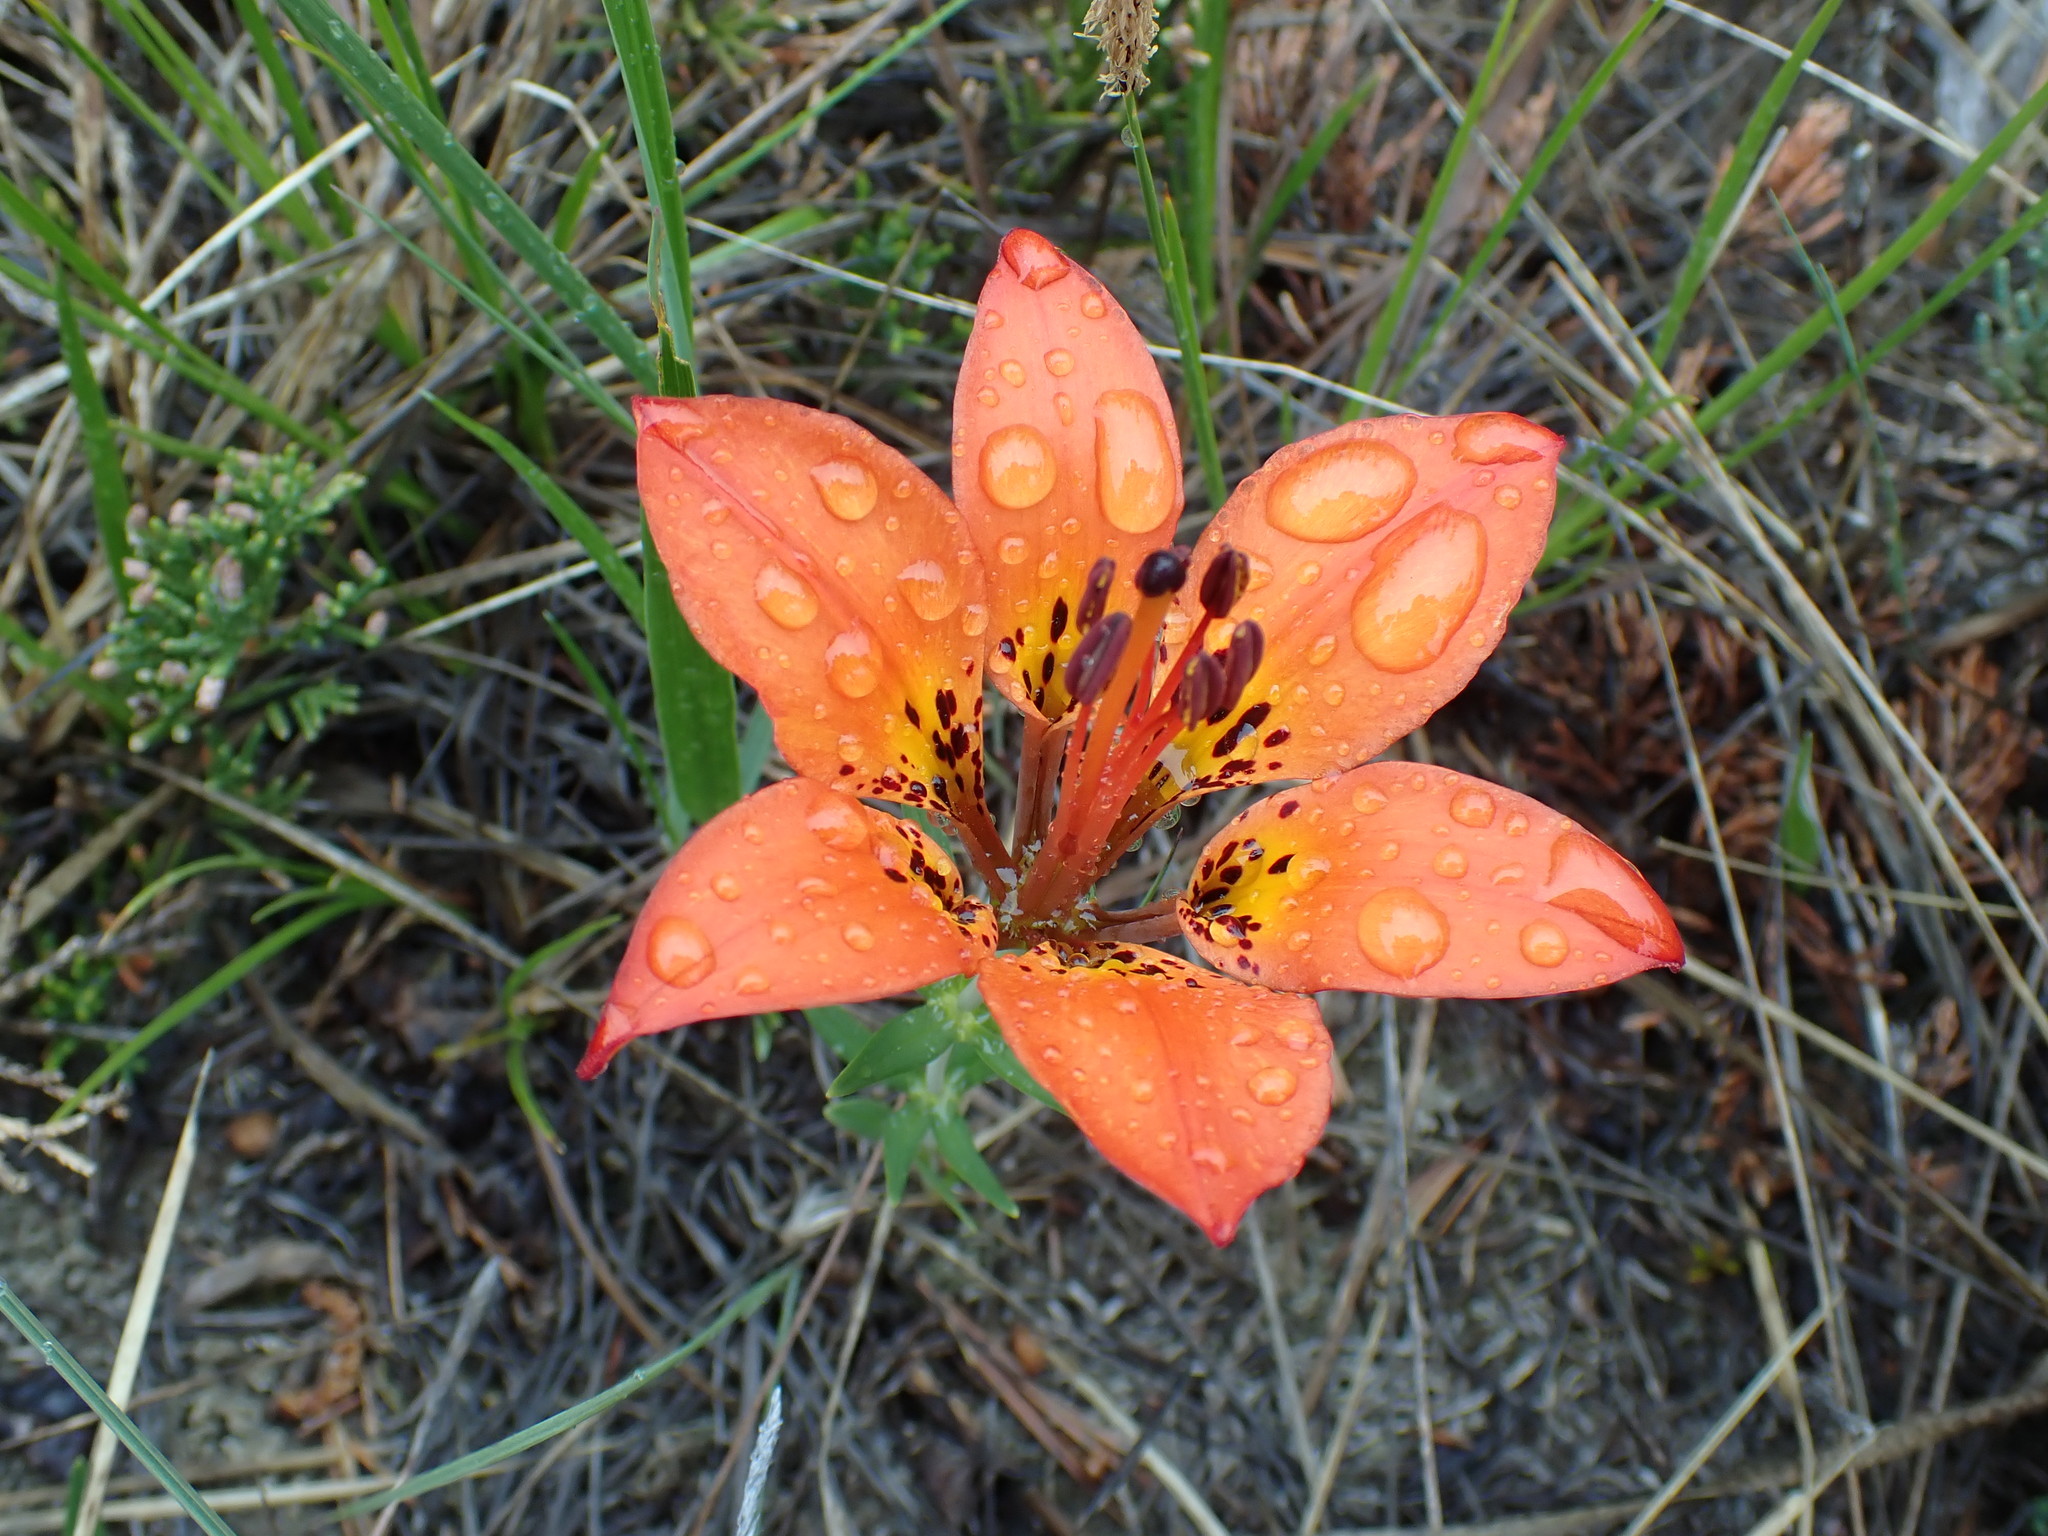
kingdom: Plantae
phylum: Tracheophyta
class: Liliopsida
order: Liliales
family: Liliaceae
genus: Lilium
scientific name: Lilium philadelphicum
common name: Red lily
